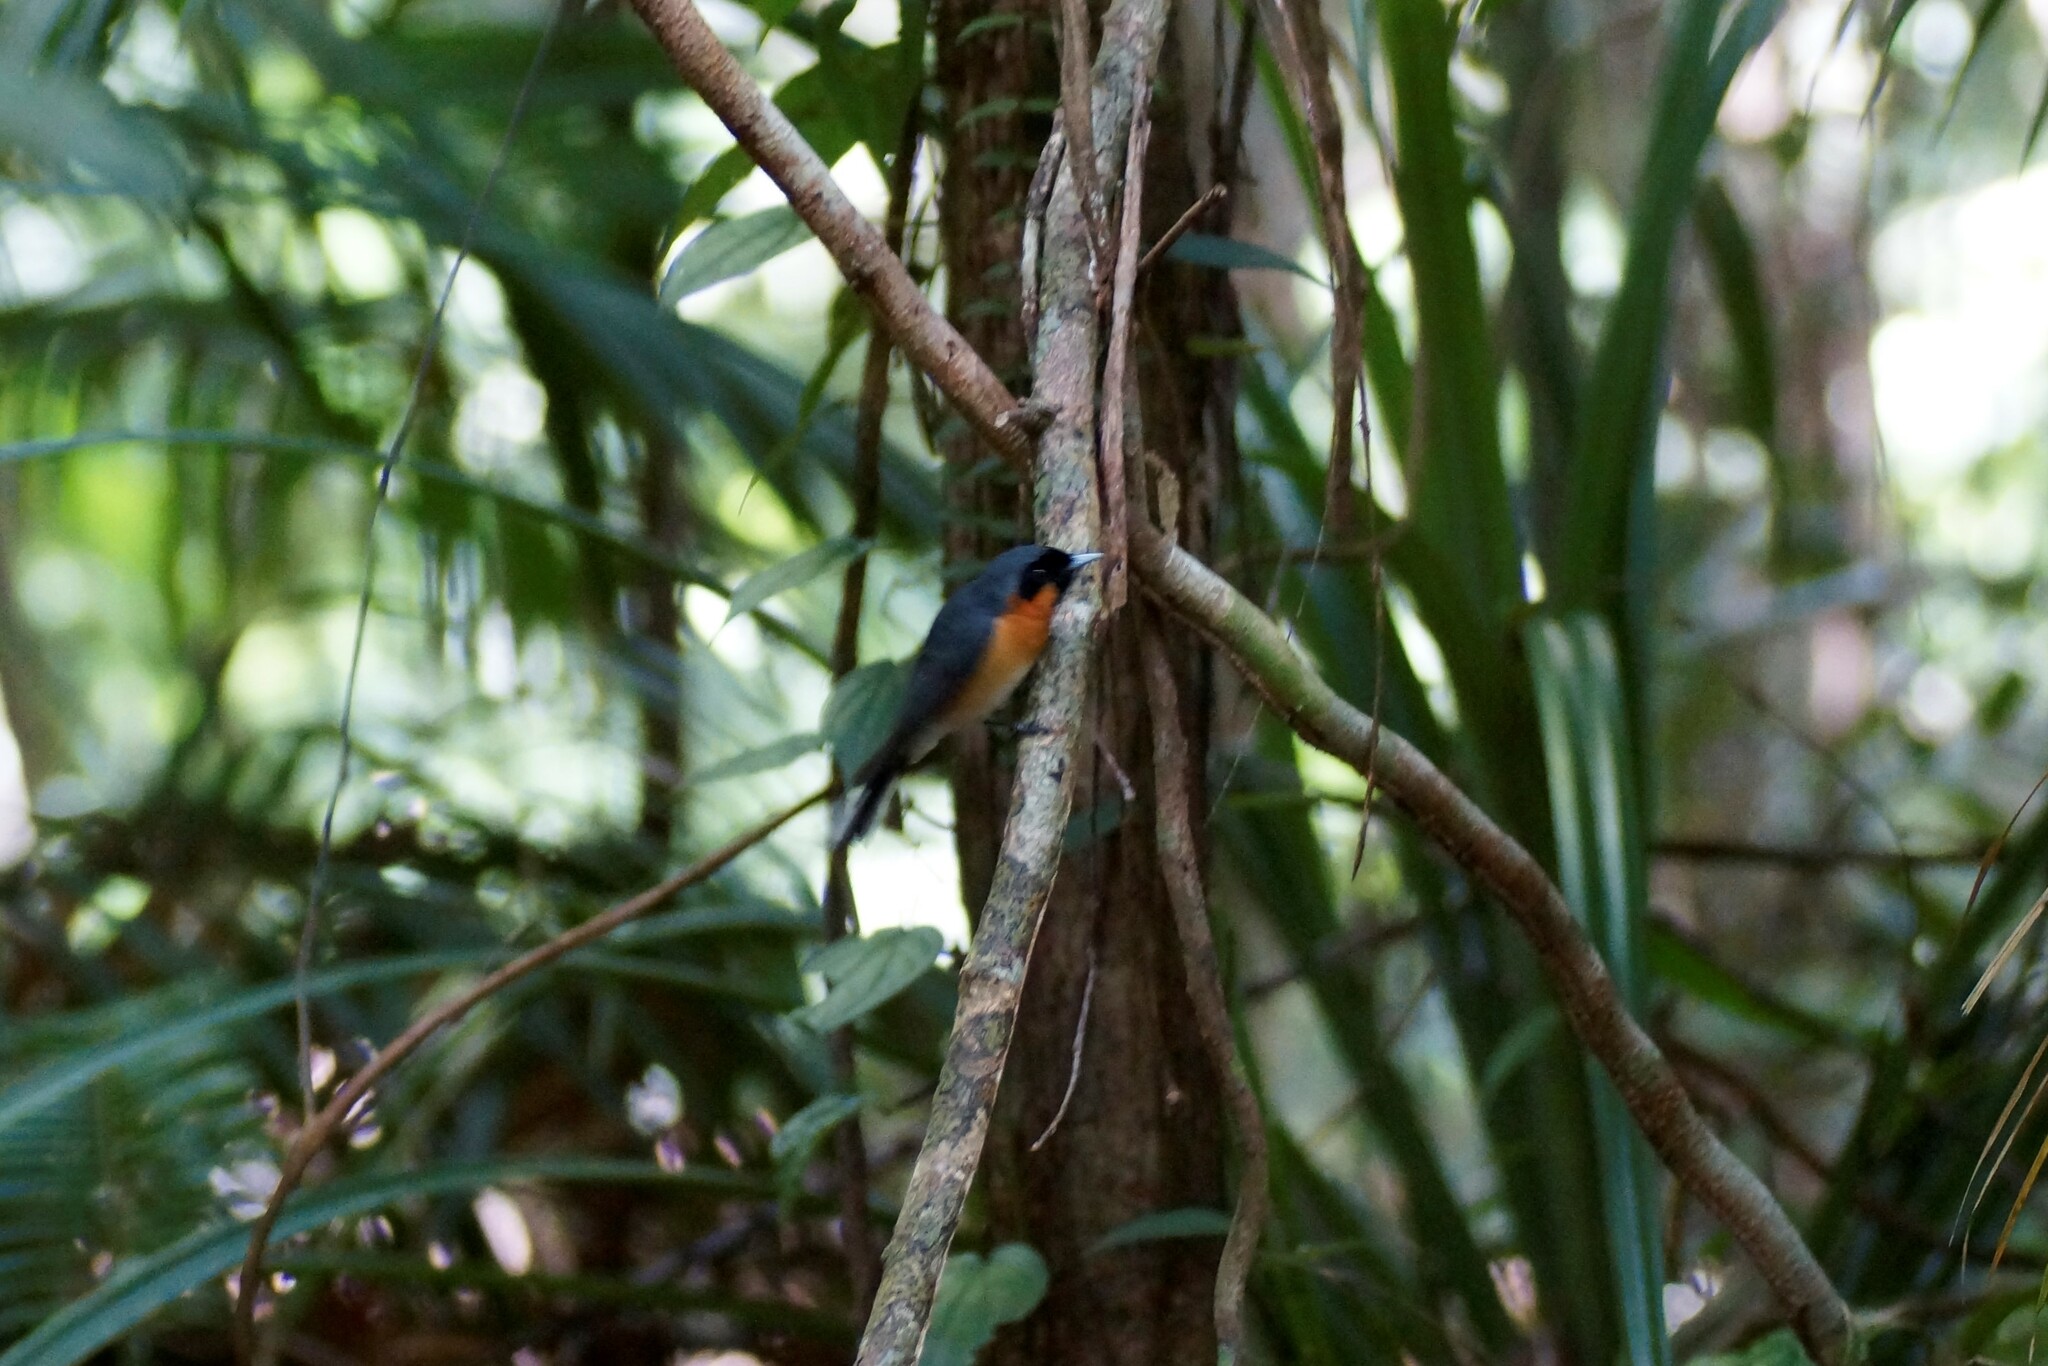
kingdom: Animalia
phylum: Chordata
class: Aves
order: Passeriformes
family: Monarchidae
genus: Symposiachrus
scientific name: Symposiachrus trivirgatus
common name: Spectacled monarch
